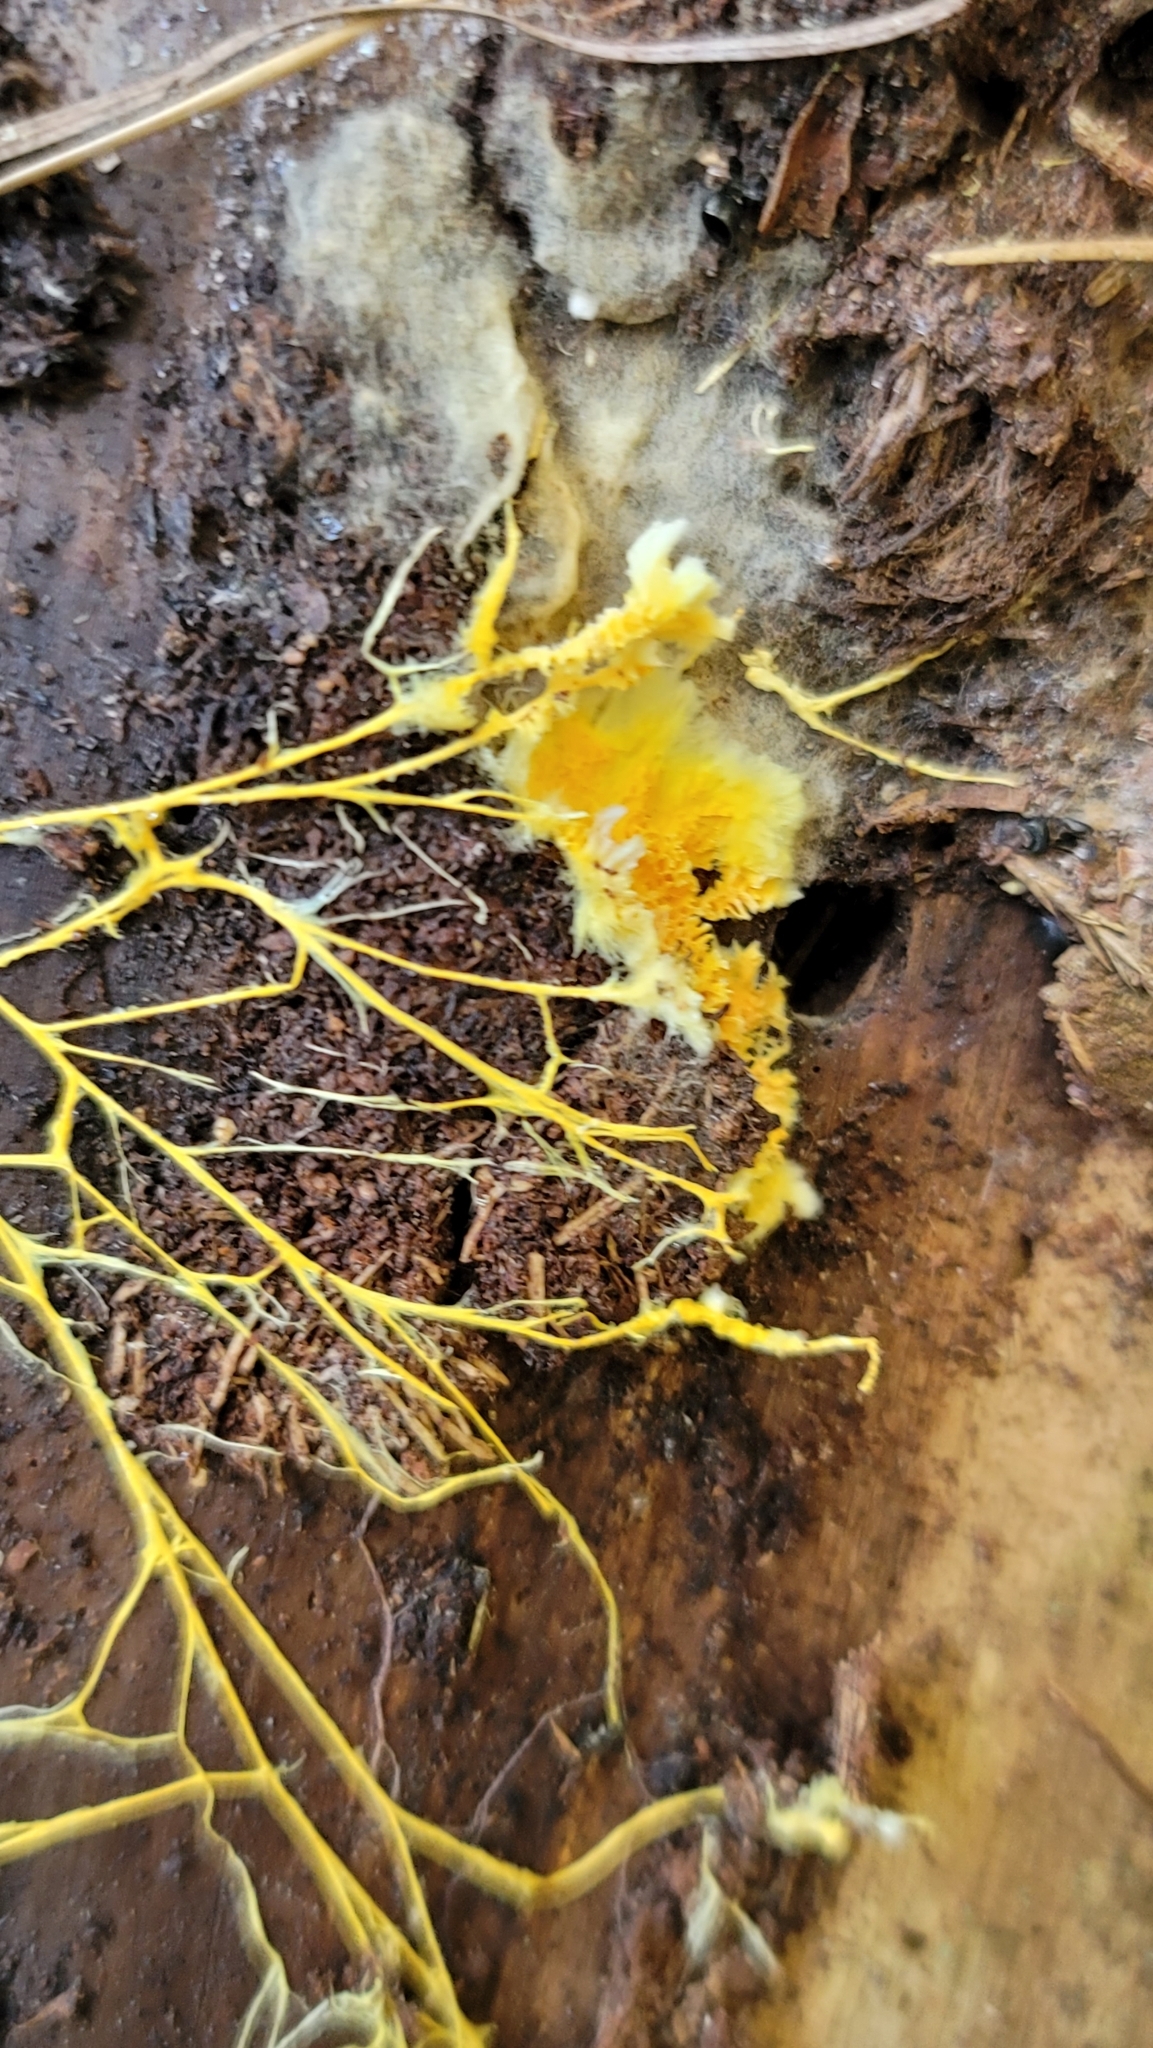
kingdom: Fungi
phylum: Basidiomycota
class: Agaricomycetes
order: Polyporales
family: Meruliaceae
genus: Hydnophlebia
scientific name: Hydnophlebia chrysorhiza
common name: Spreading yellow tooth
